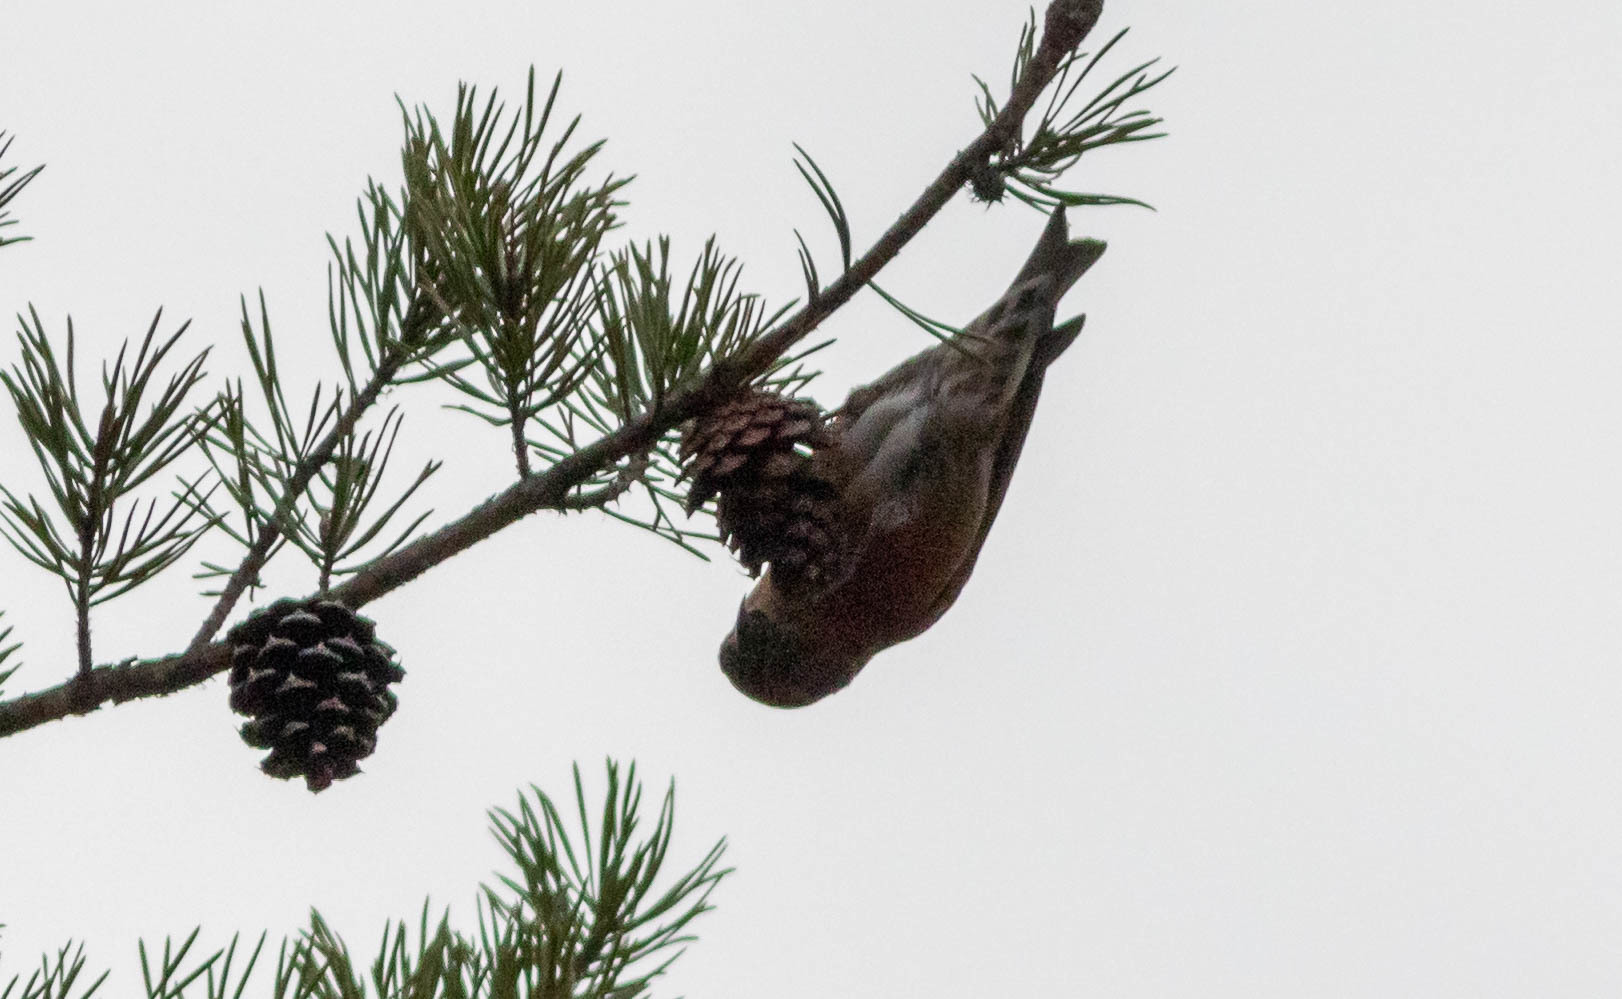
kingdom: Animalia
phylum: Chordata
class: Aves
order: Passeriformes
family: Fringillidae
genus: Loxia
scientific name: Loxia curvirostra
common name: Red crossbill
